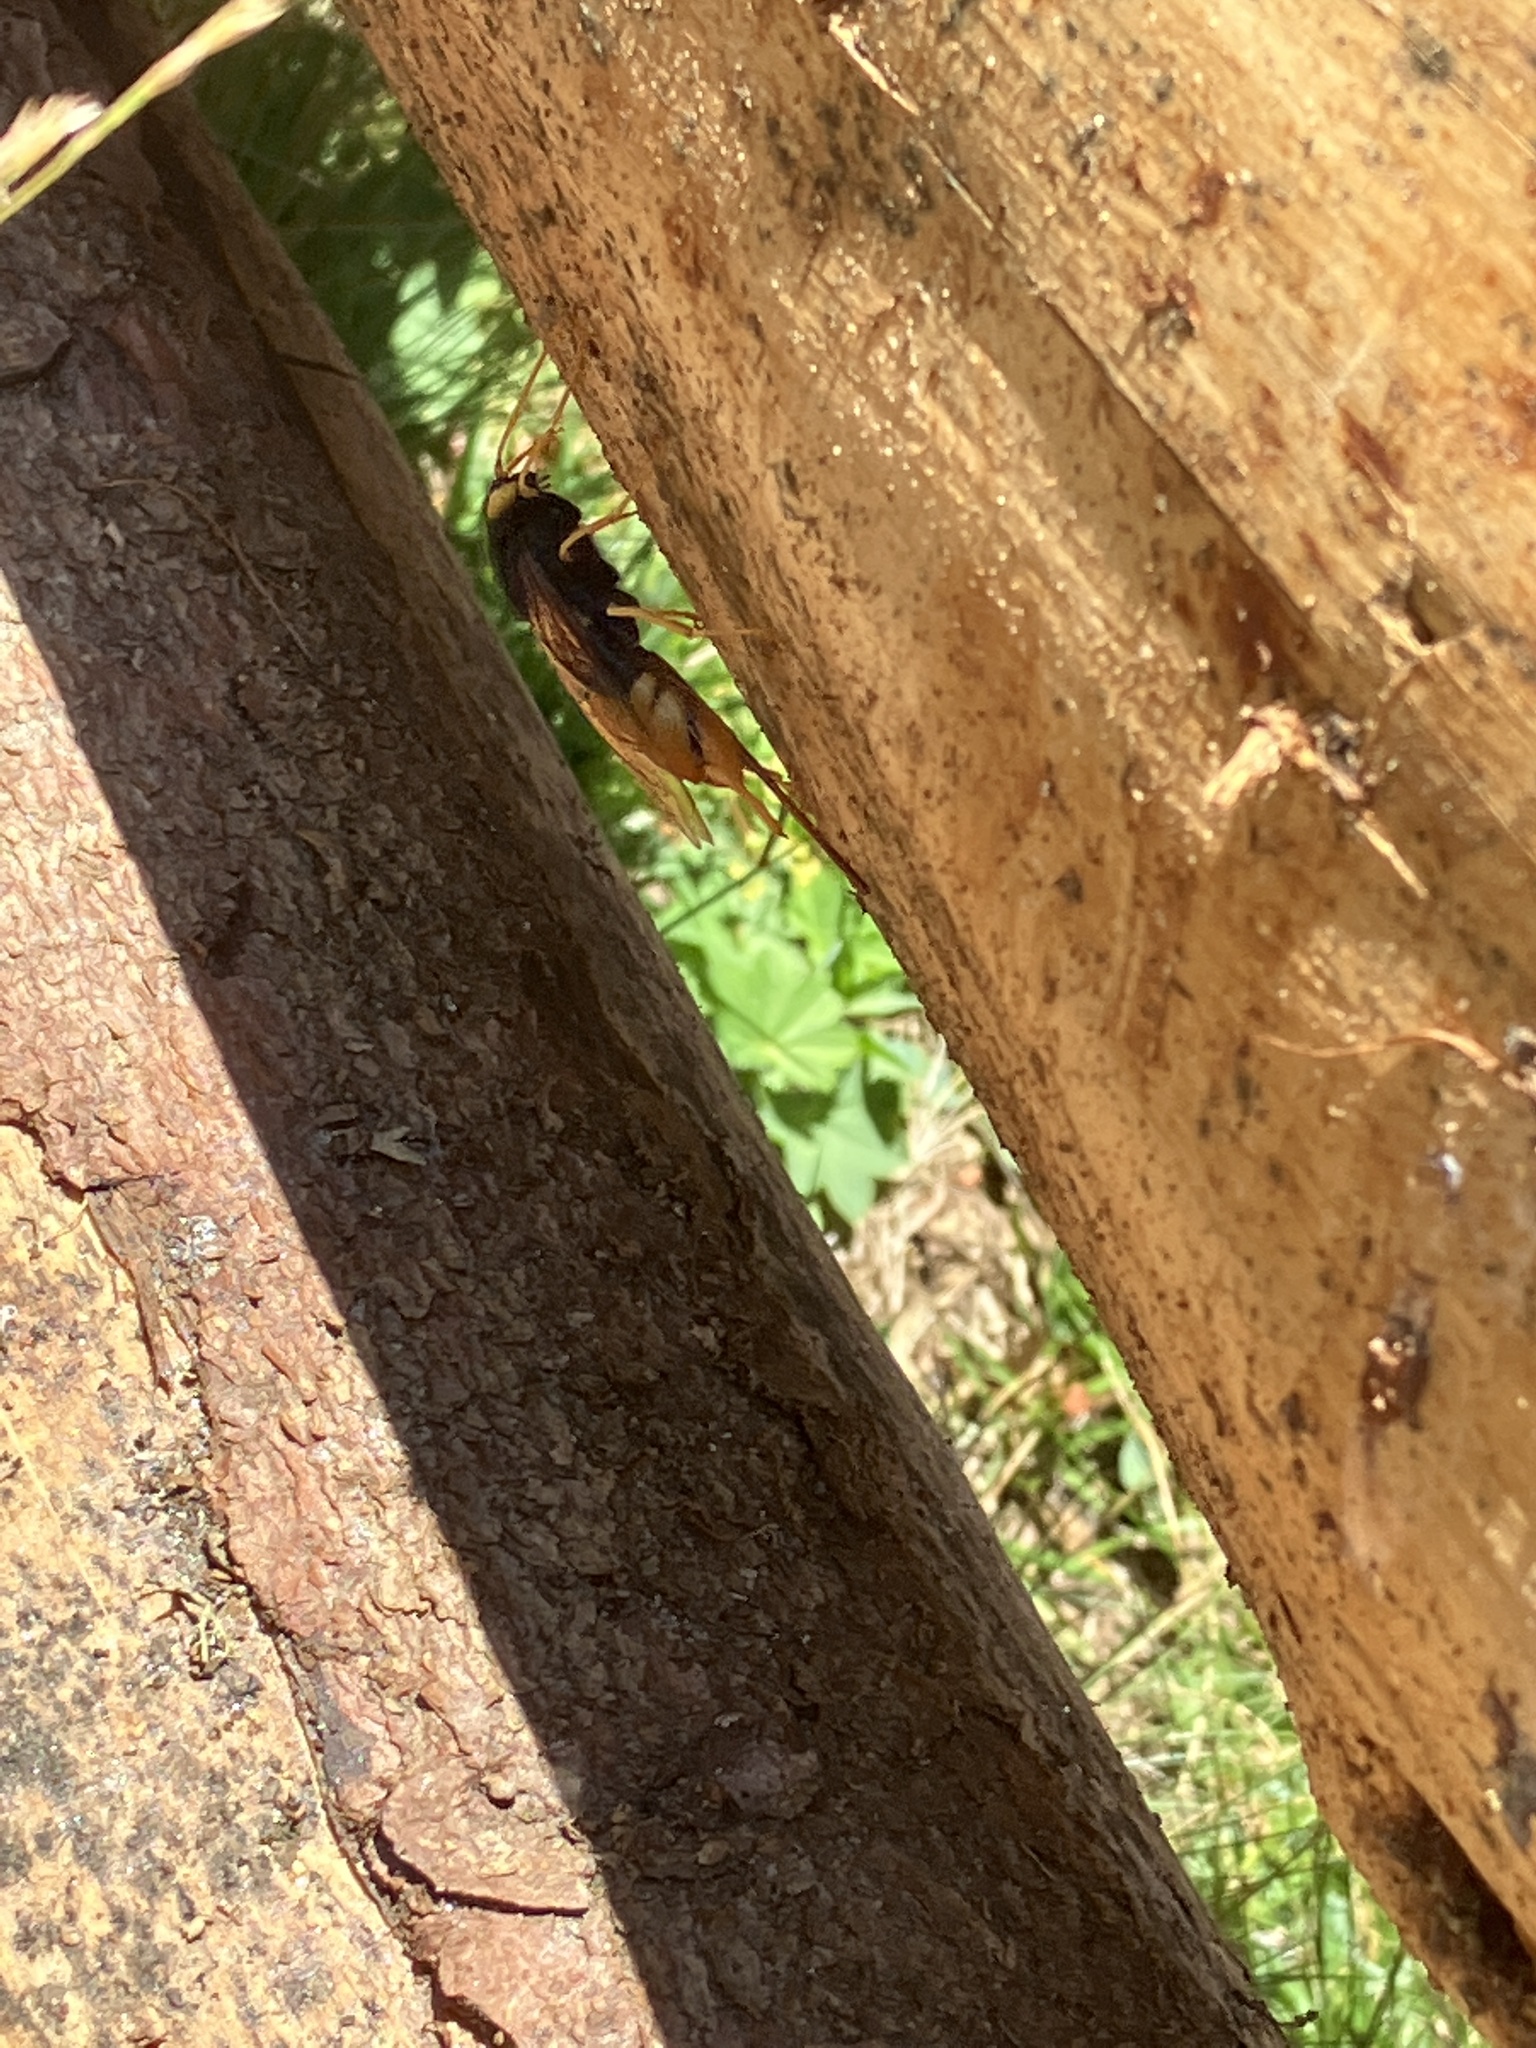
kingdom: Animalia
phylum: Arthropoda
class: Insecta
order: Hymenoptera
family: Siricidae
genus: Urocerus
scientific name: Urocerus gigas
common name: Giant woodwasp
